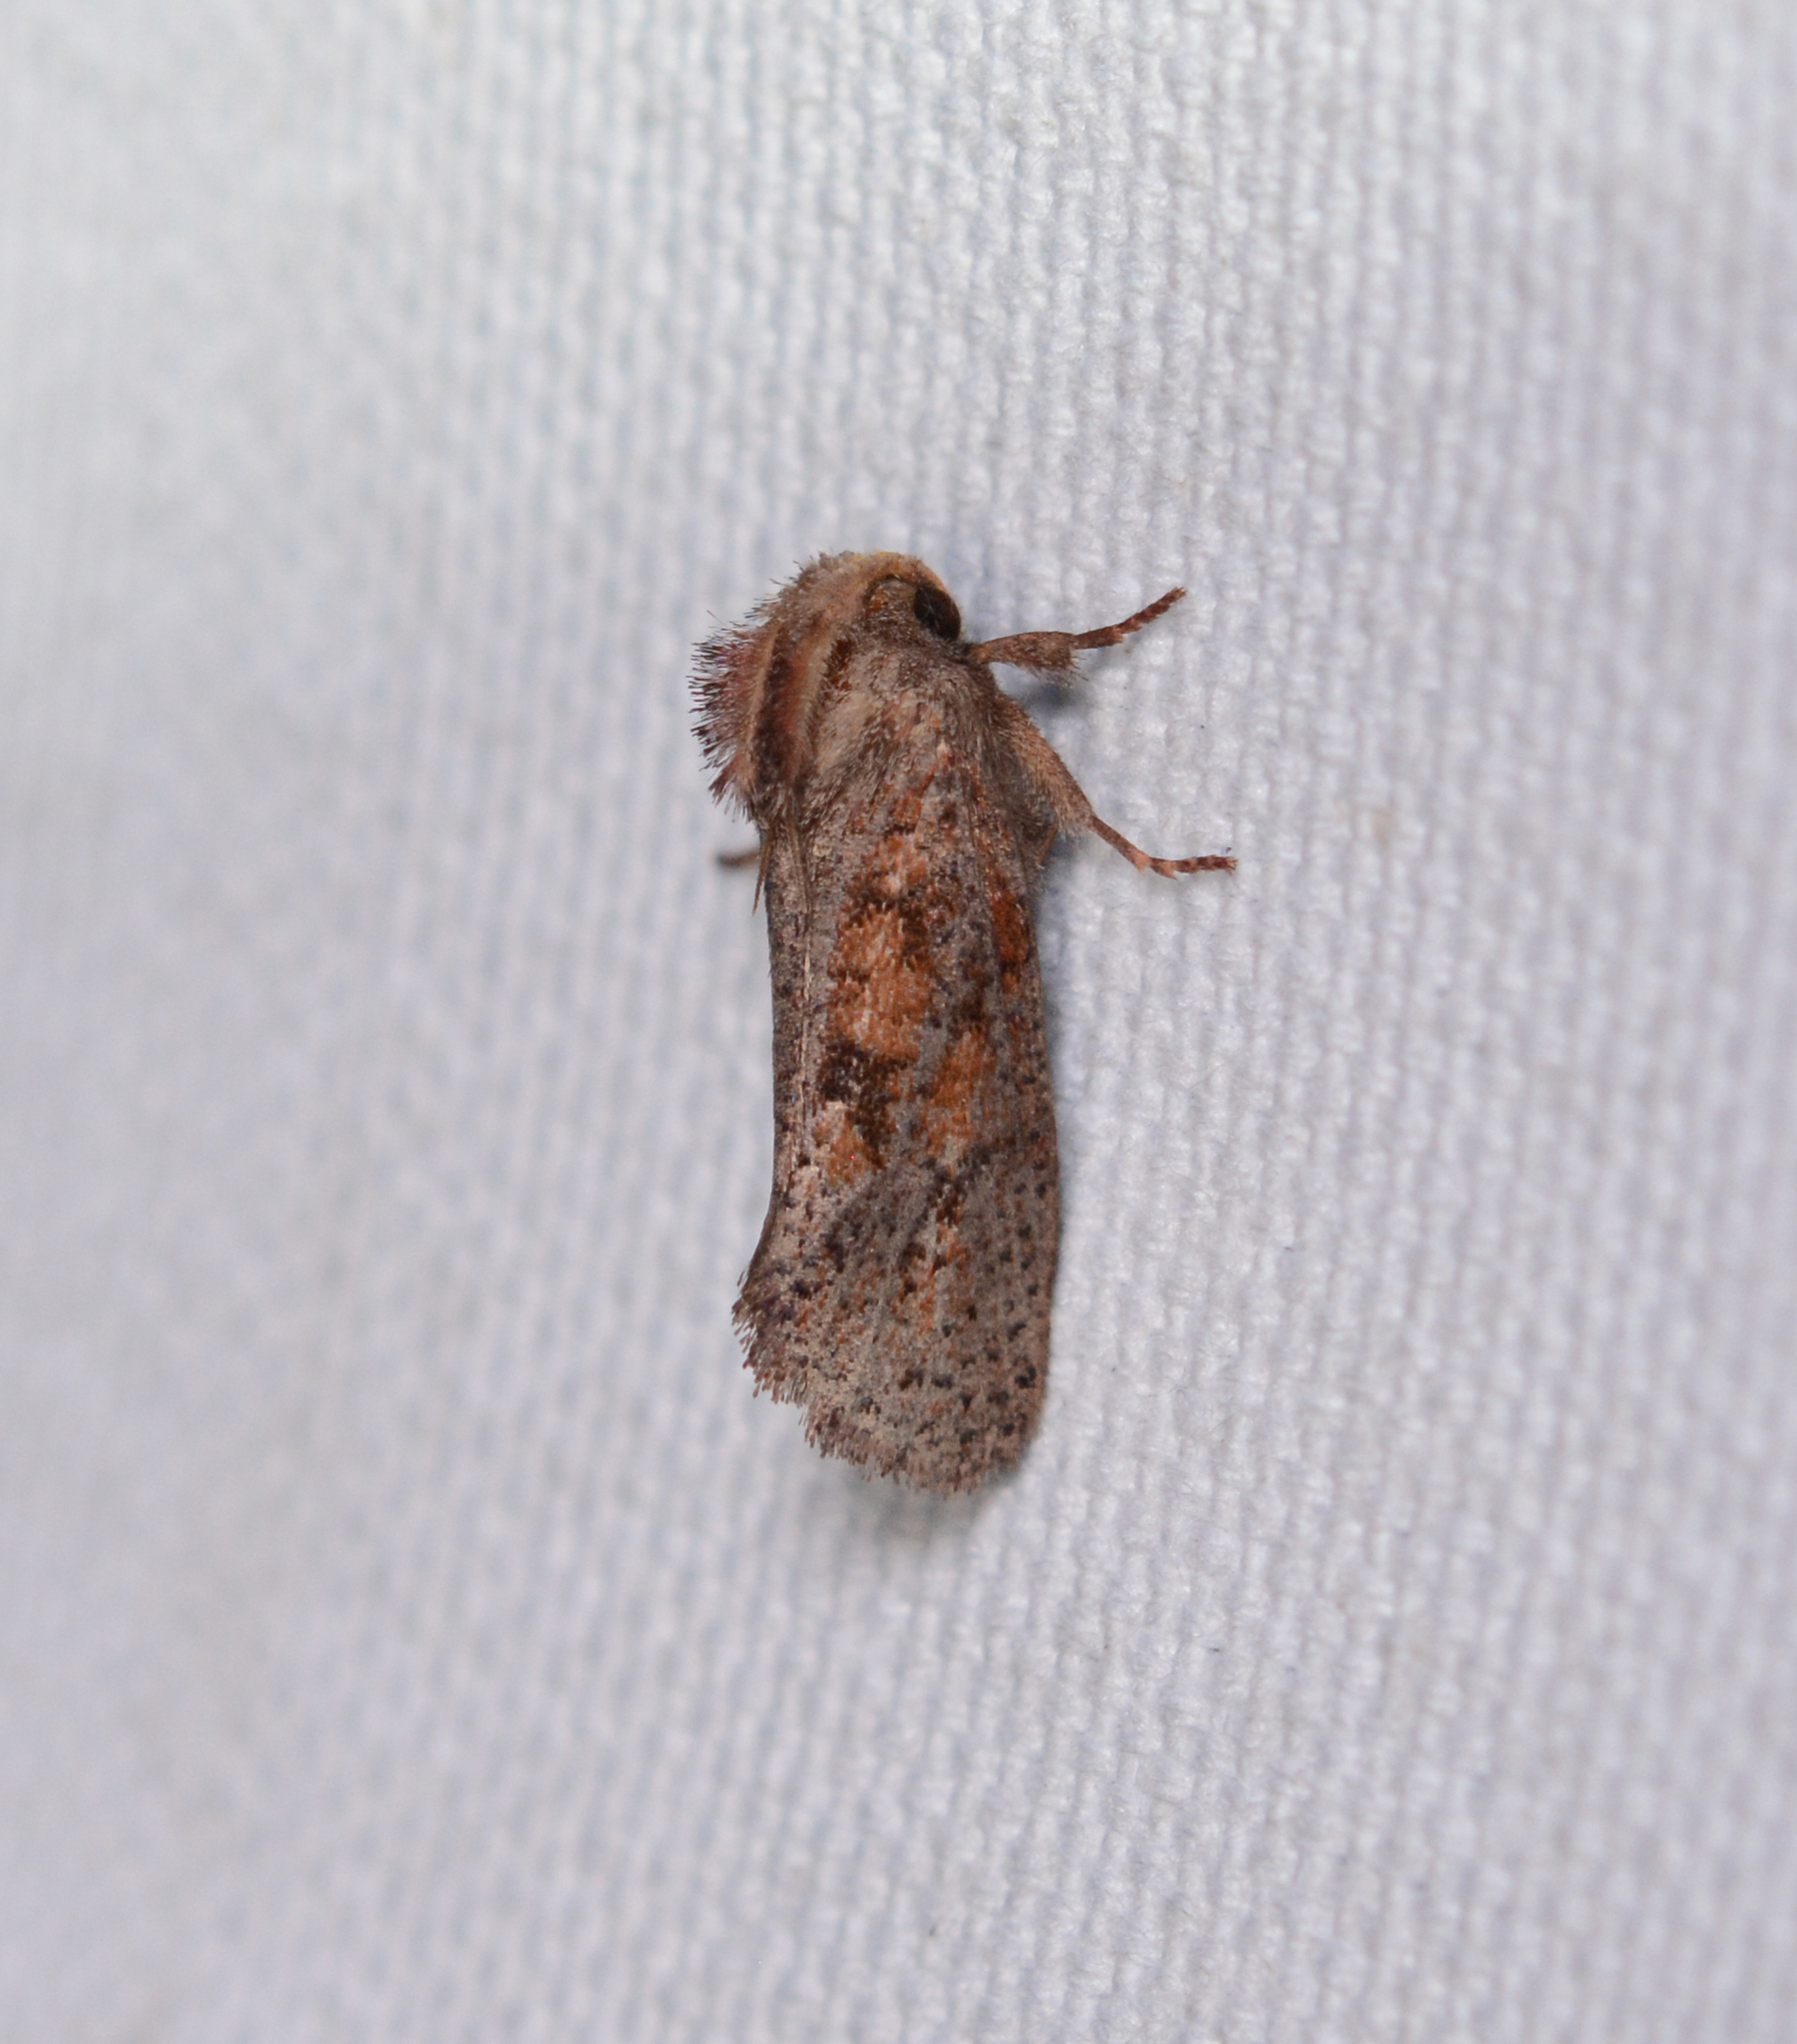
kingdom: Animalia
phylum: Arthropoda
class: Insecta
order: Lepidoptera
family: Tineidae
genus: Acrolophus
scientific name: Acrolophus plumifrontella
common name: Eastern grass tubeworm moth
